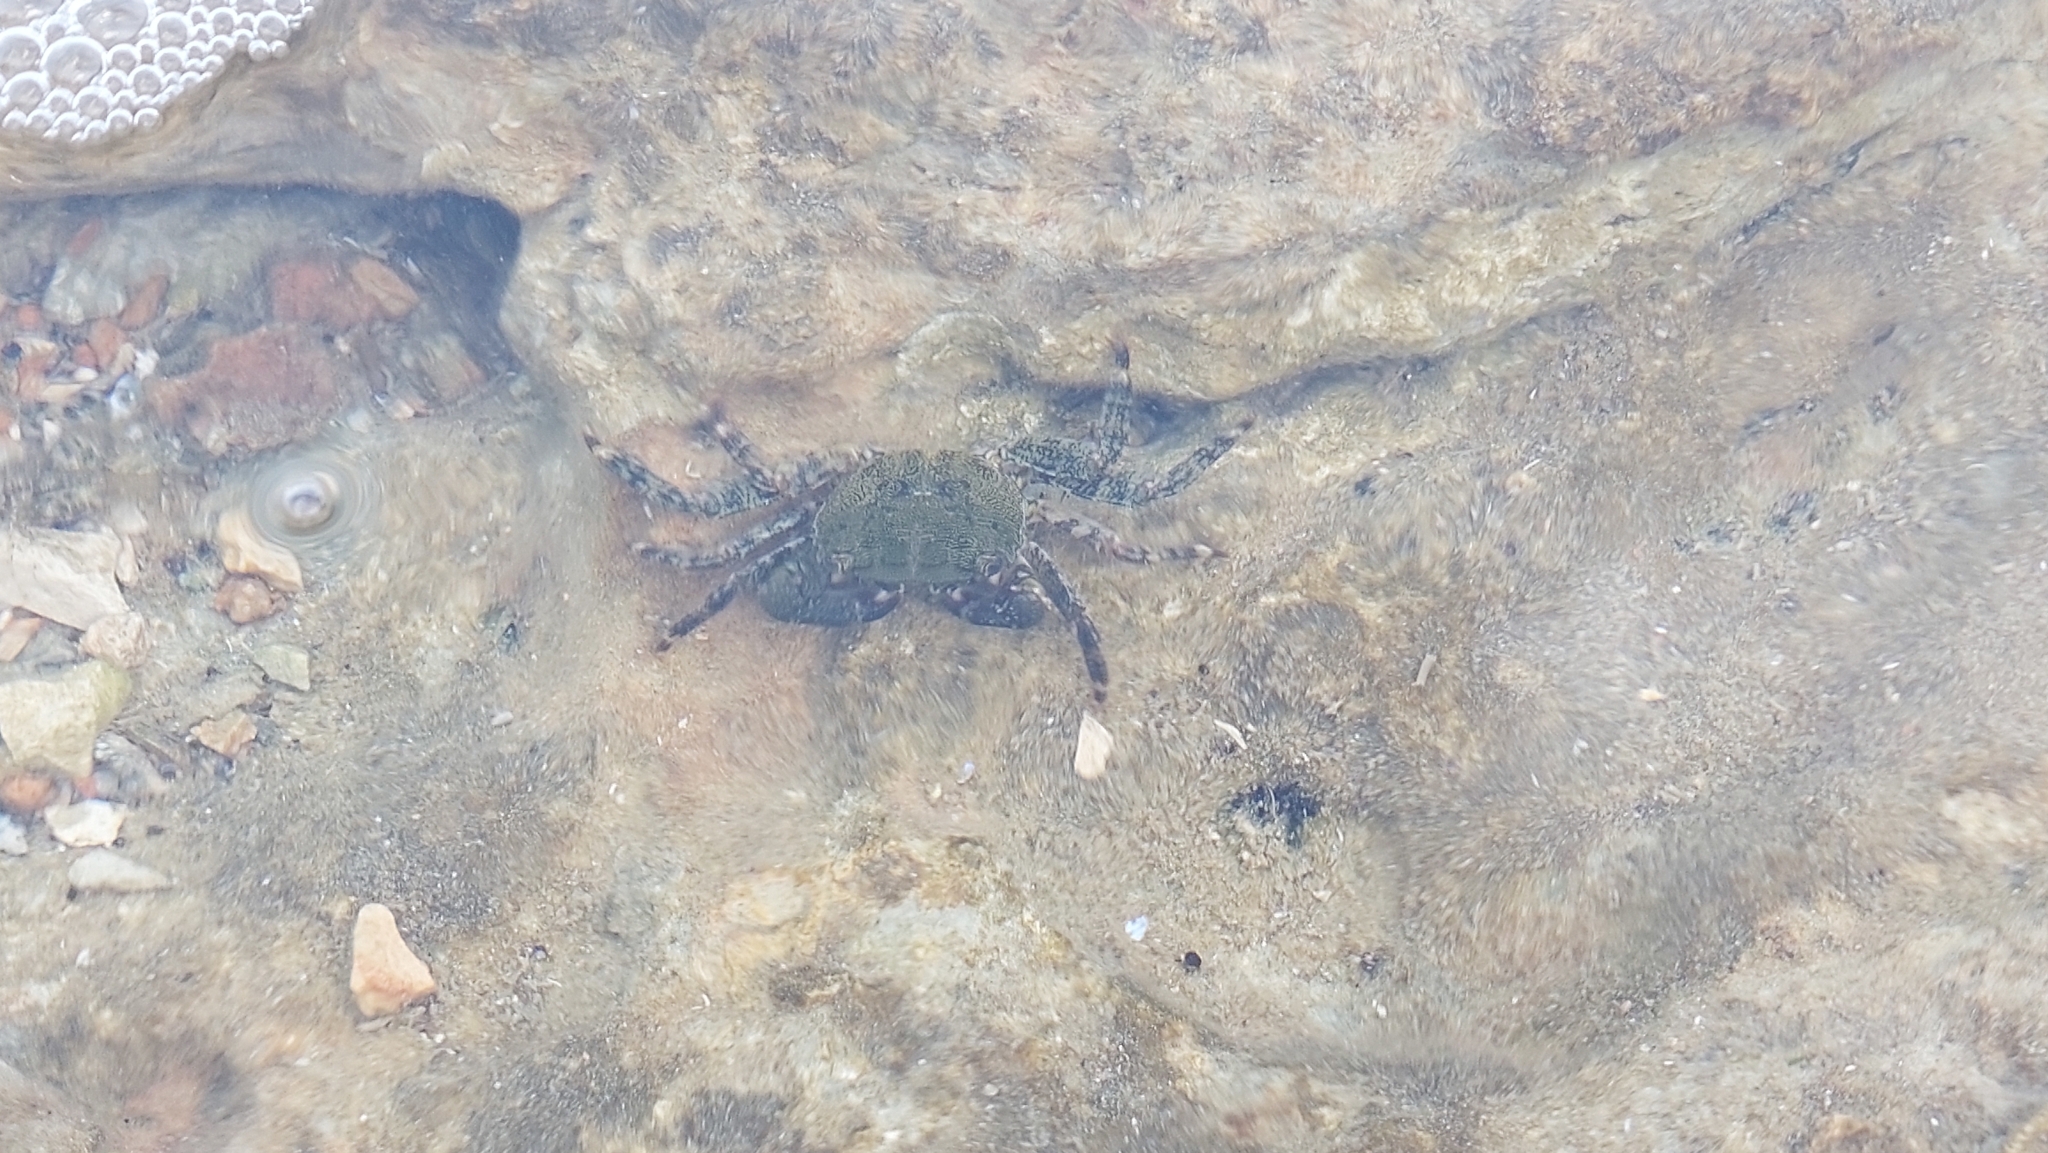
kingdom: Animalia
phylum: Arthropoda
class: Malacostraca
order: Decapoda
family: Grapsidae
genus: Pachygrapsus
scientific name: Pachygrapsus marmoratus
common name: Marbled rock crab
